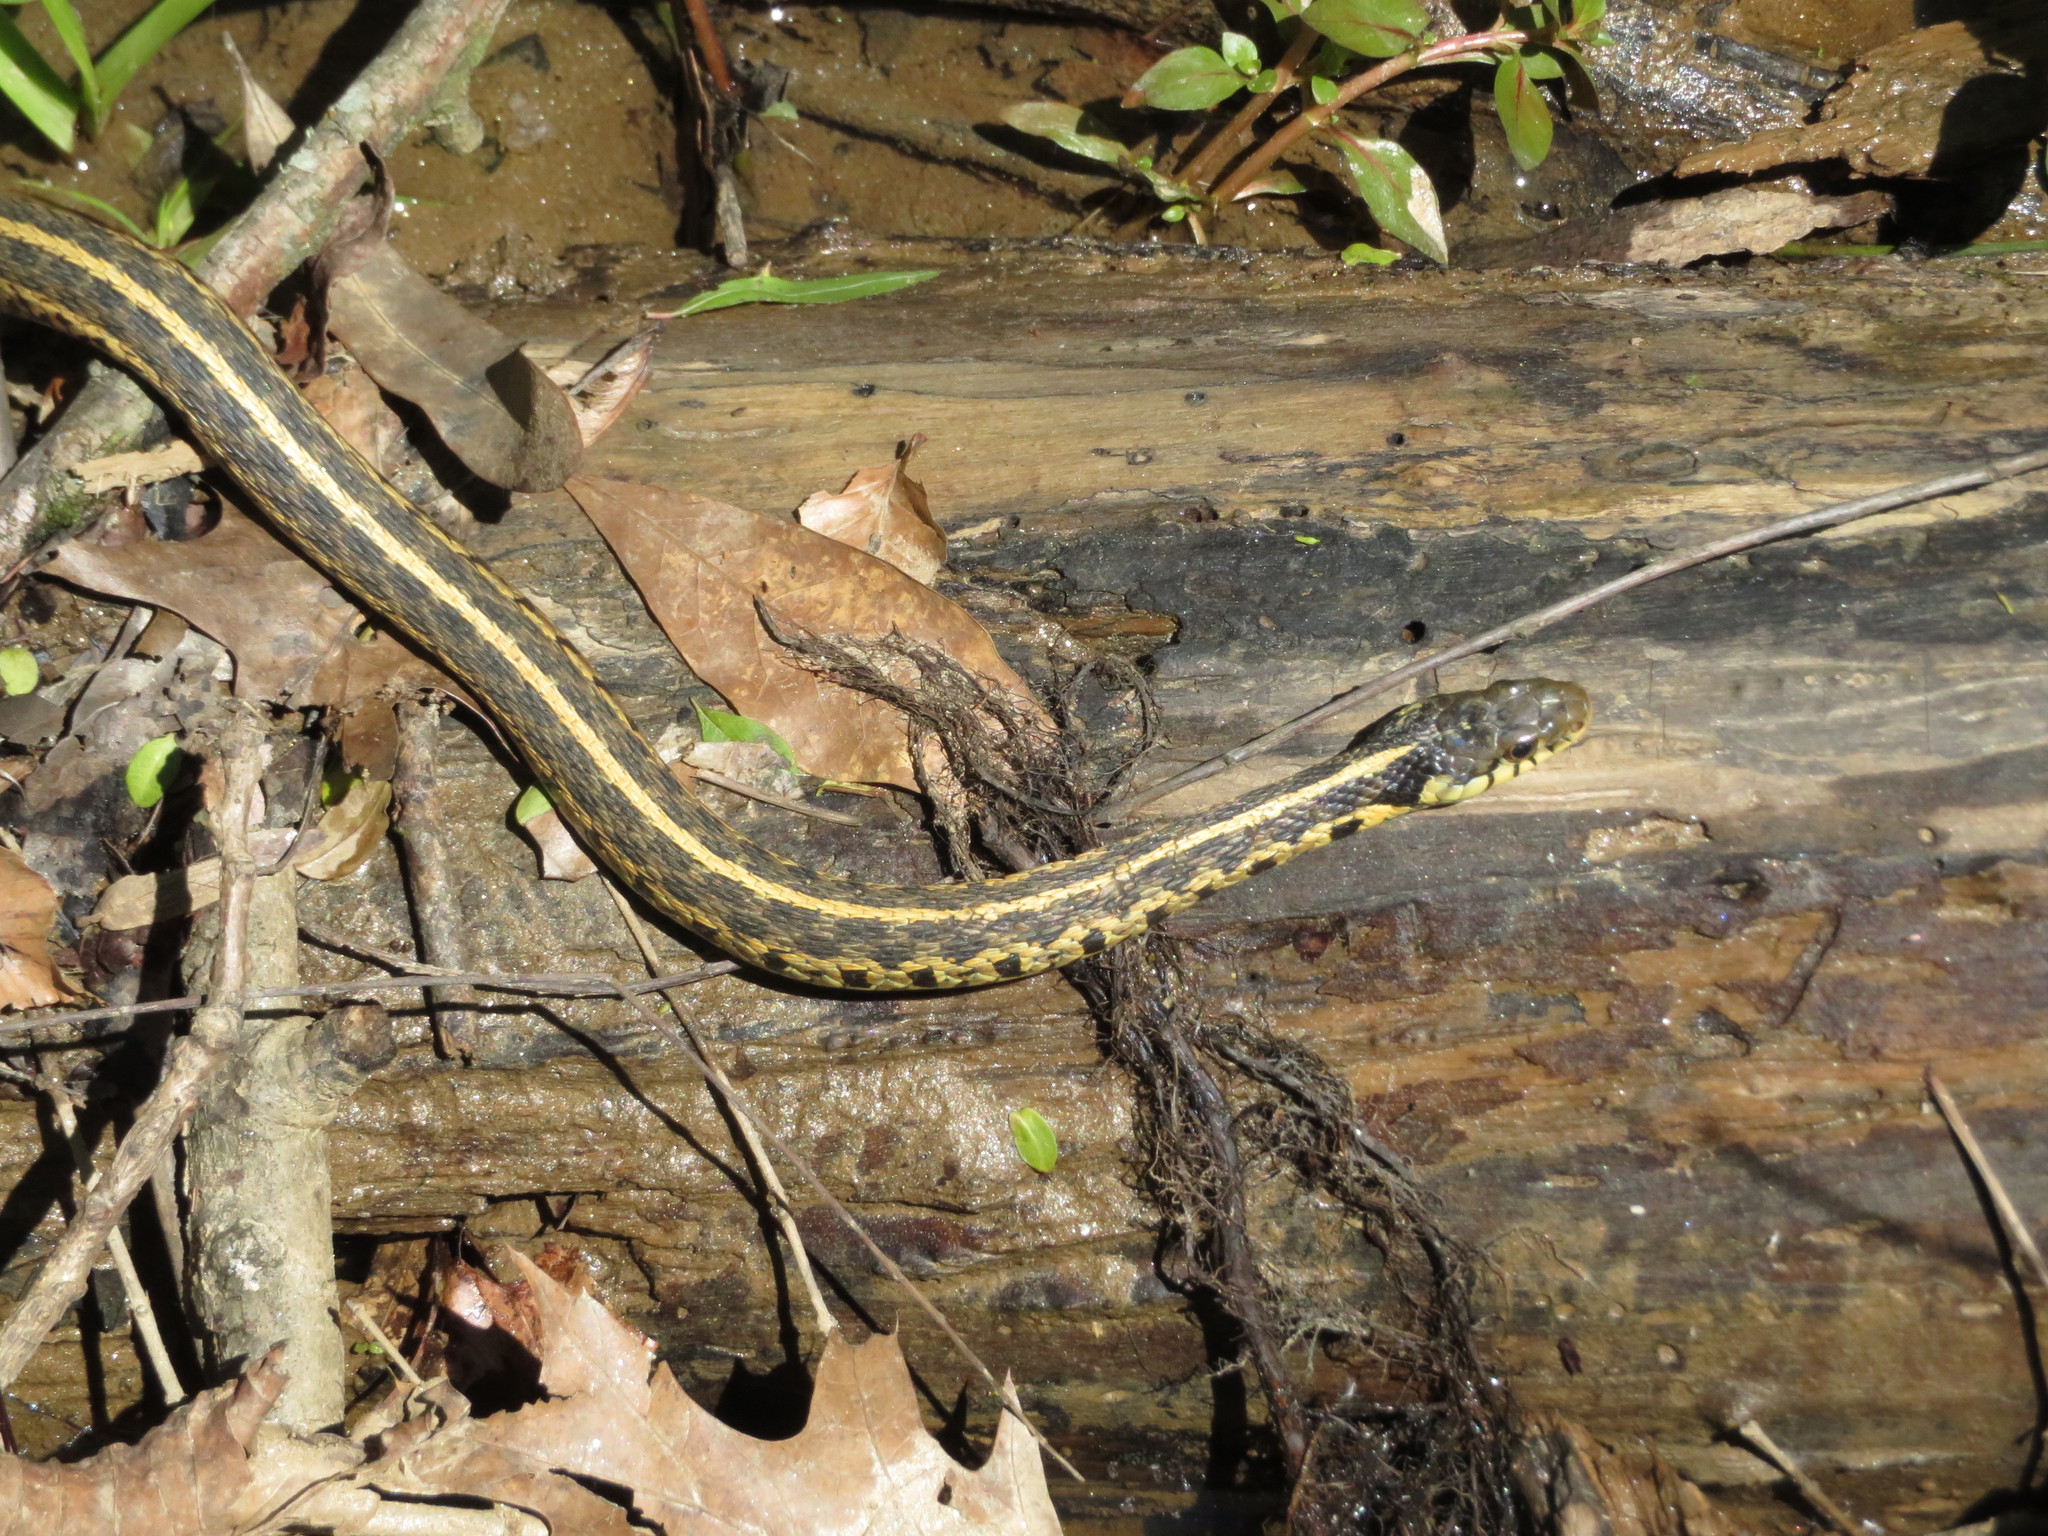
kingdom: Animalia
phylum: Chordata
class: Squamata
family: Colubridae
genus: Thamnophis
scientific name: Thamnophis sirtalis
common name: Common garter snake
